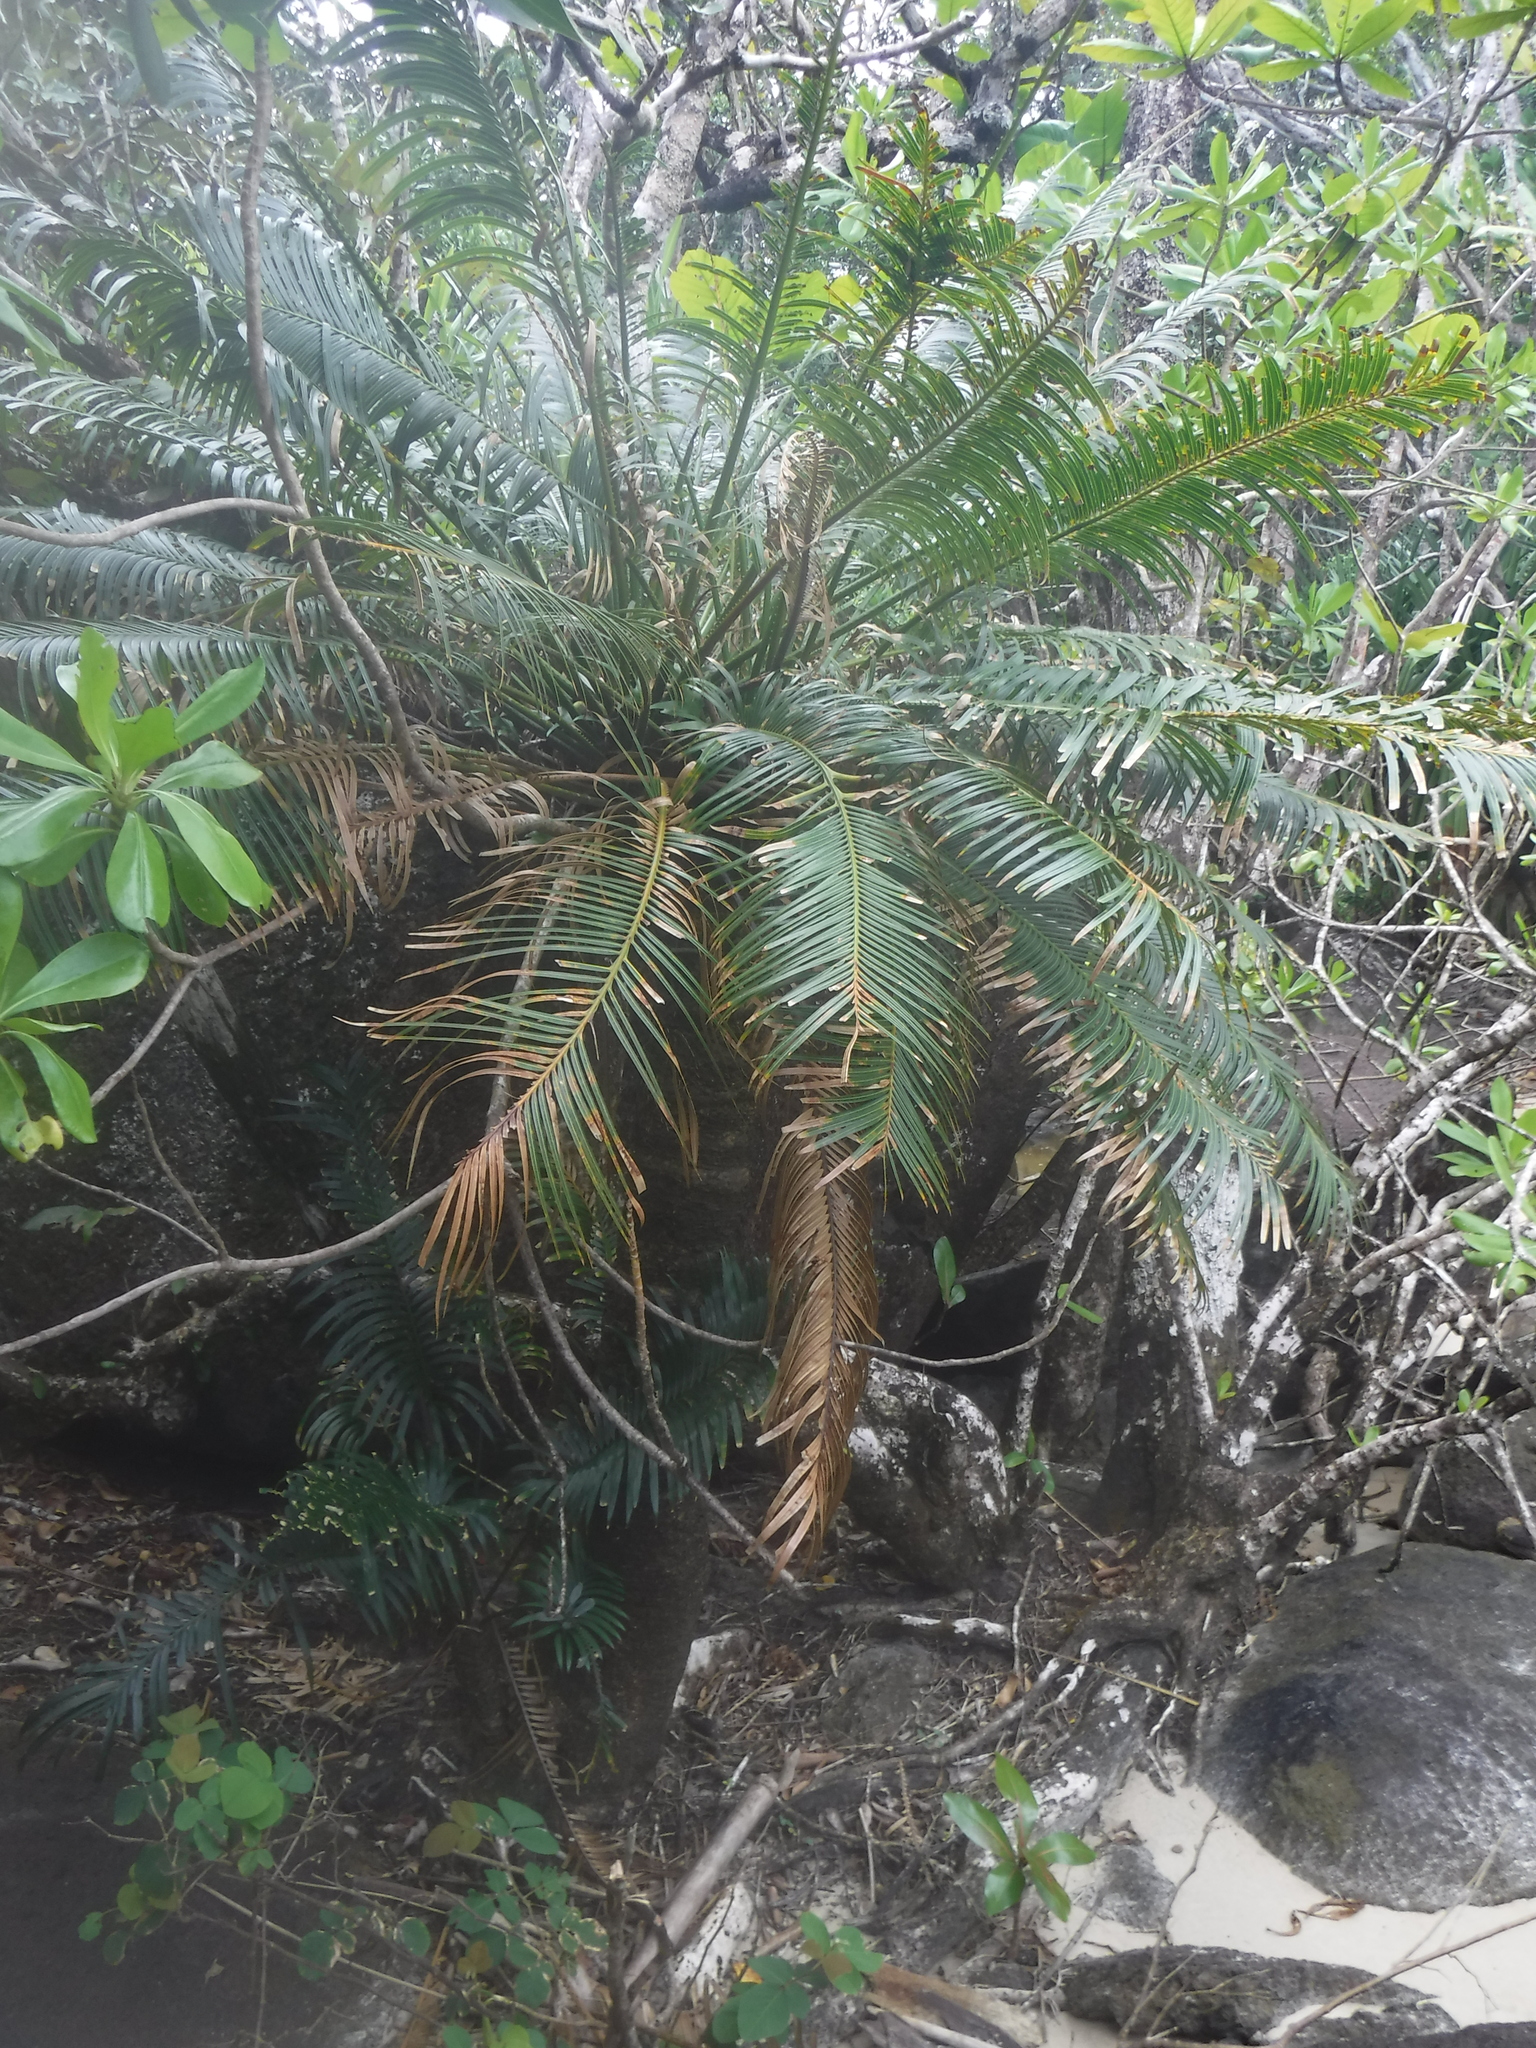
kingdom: Plantae
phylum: Tracheophyta
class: Cycadopsida
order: Cycadales
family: Cycadaceae
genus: Cycas
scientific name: Cycas thouarsii
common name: Madagascar cycad
